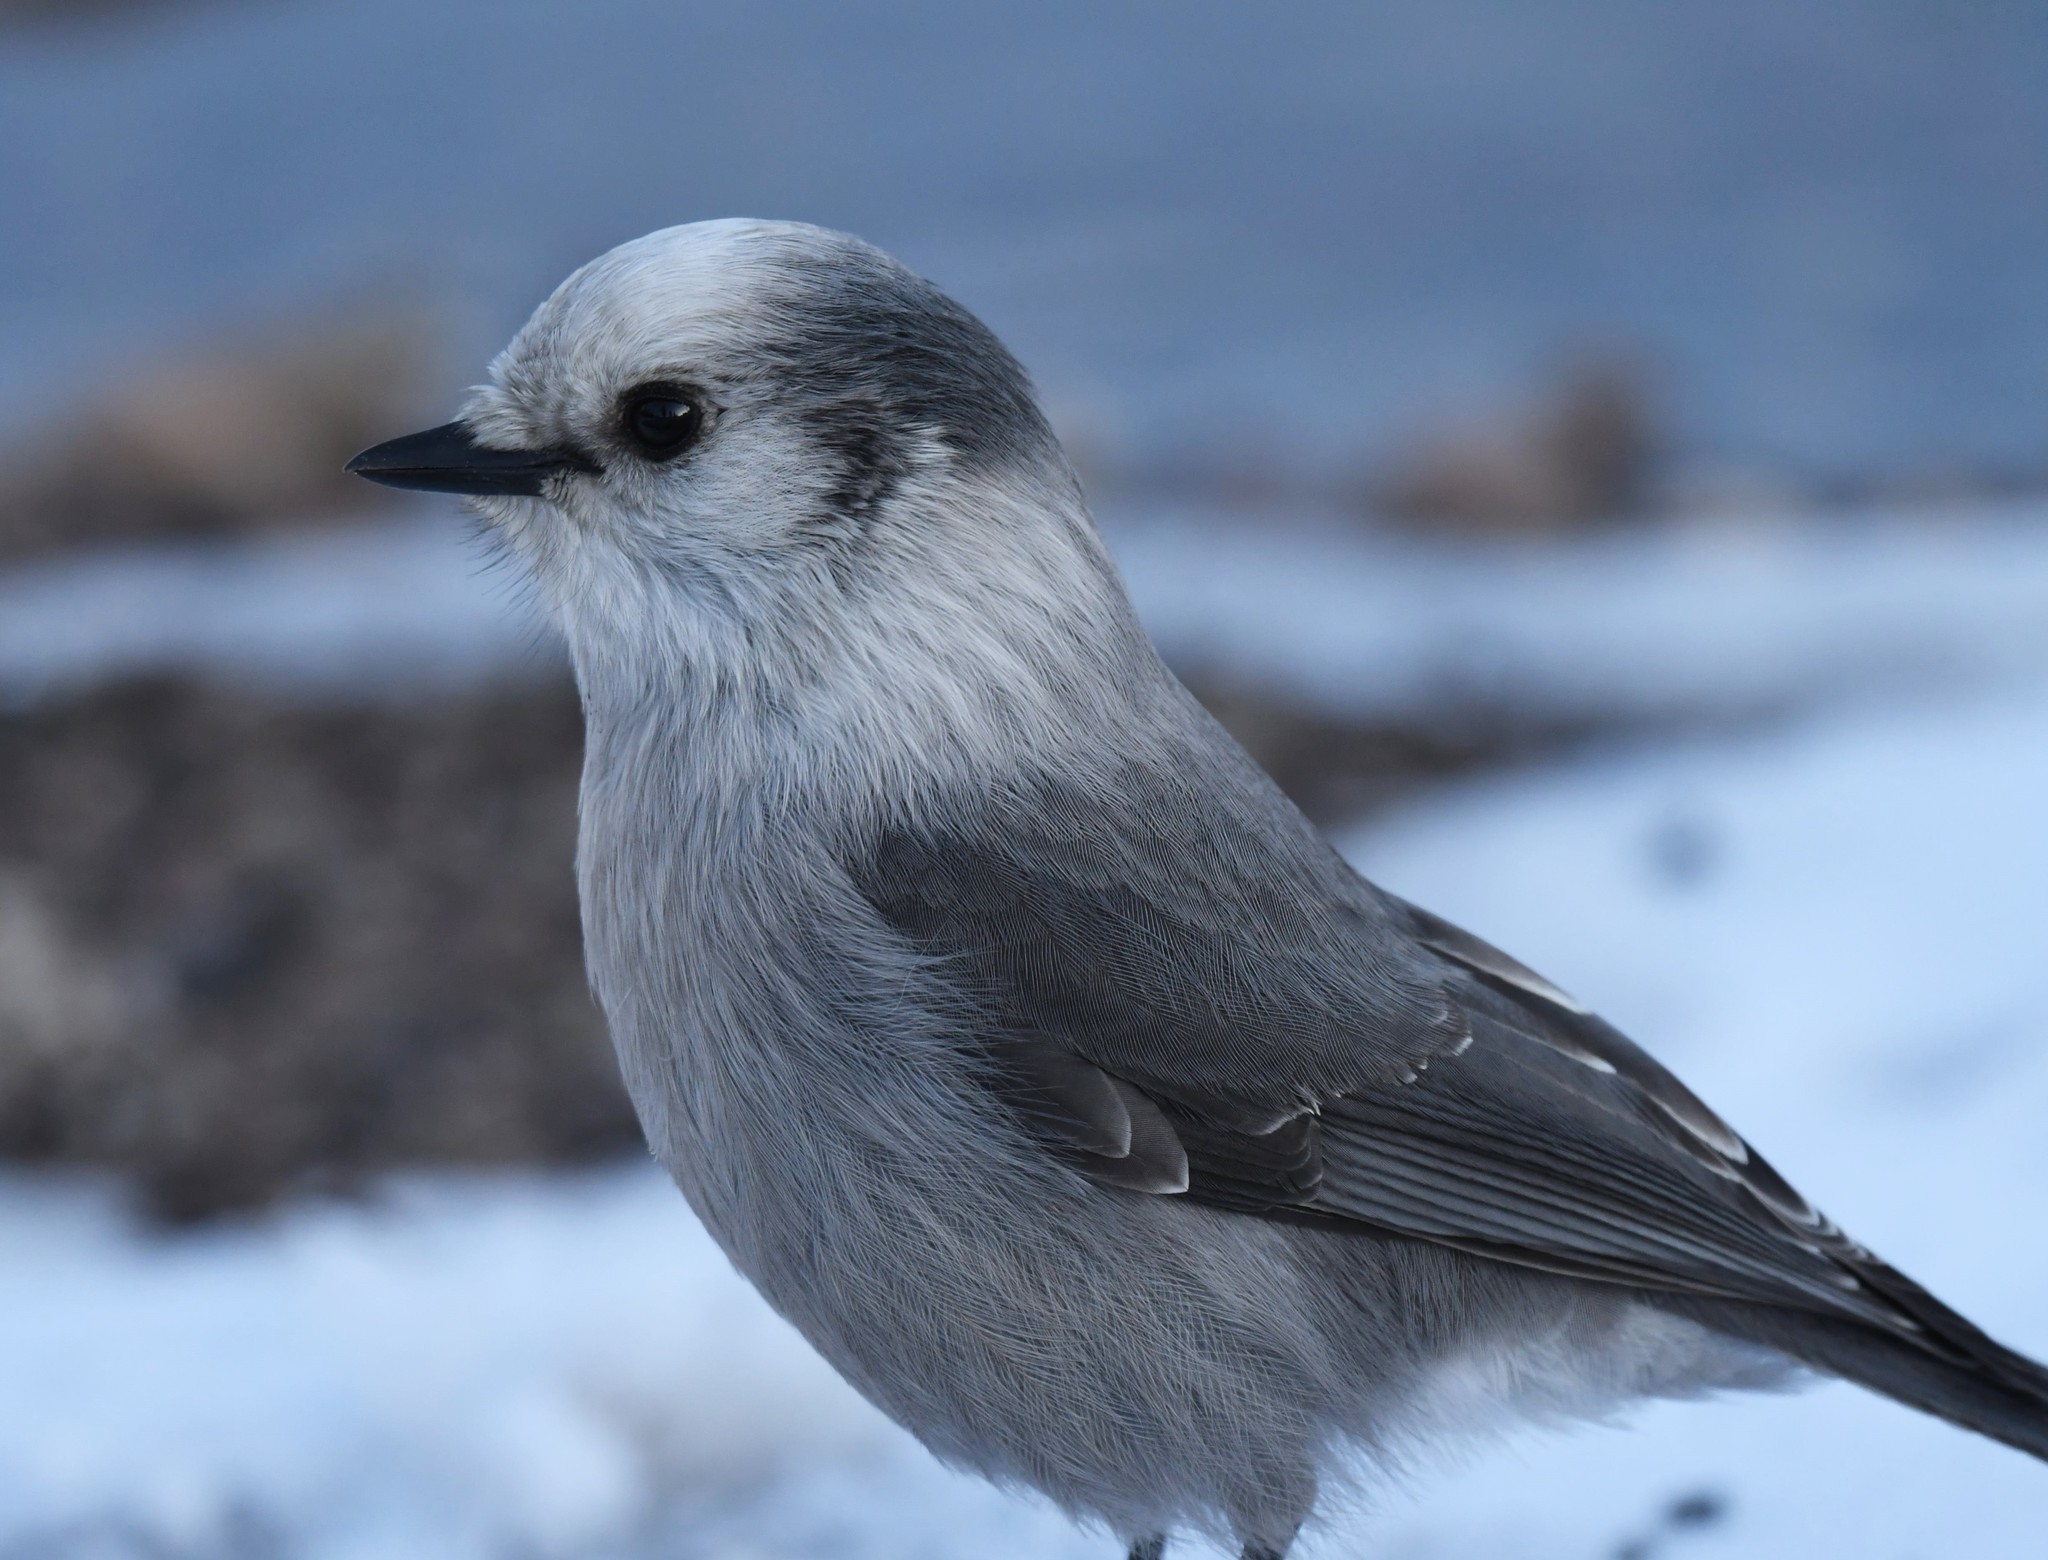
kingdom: Animalia
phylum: Chordata
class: Aves
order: Passeriformes
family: Corvidae
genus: Perisoreus
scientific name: Perisoreus canadensis
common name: Gray jay
